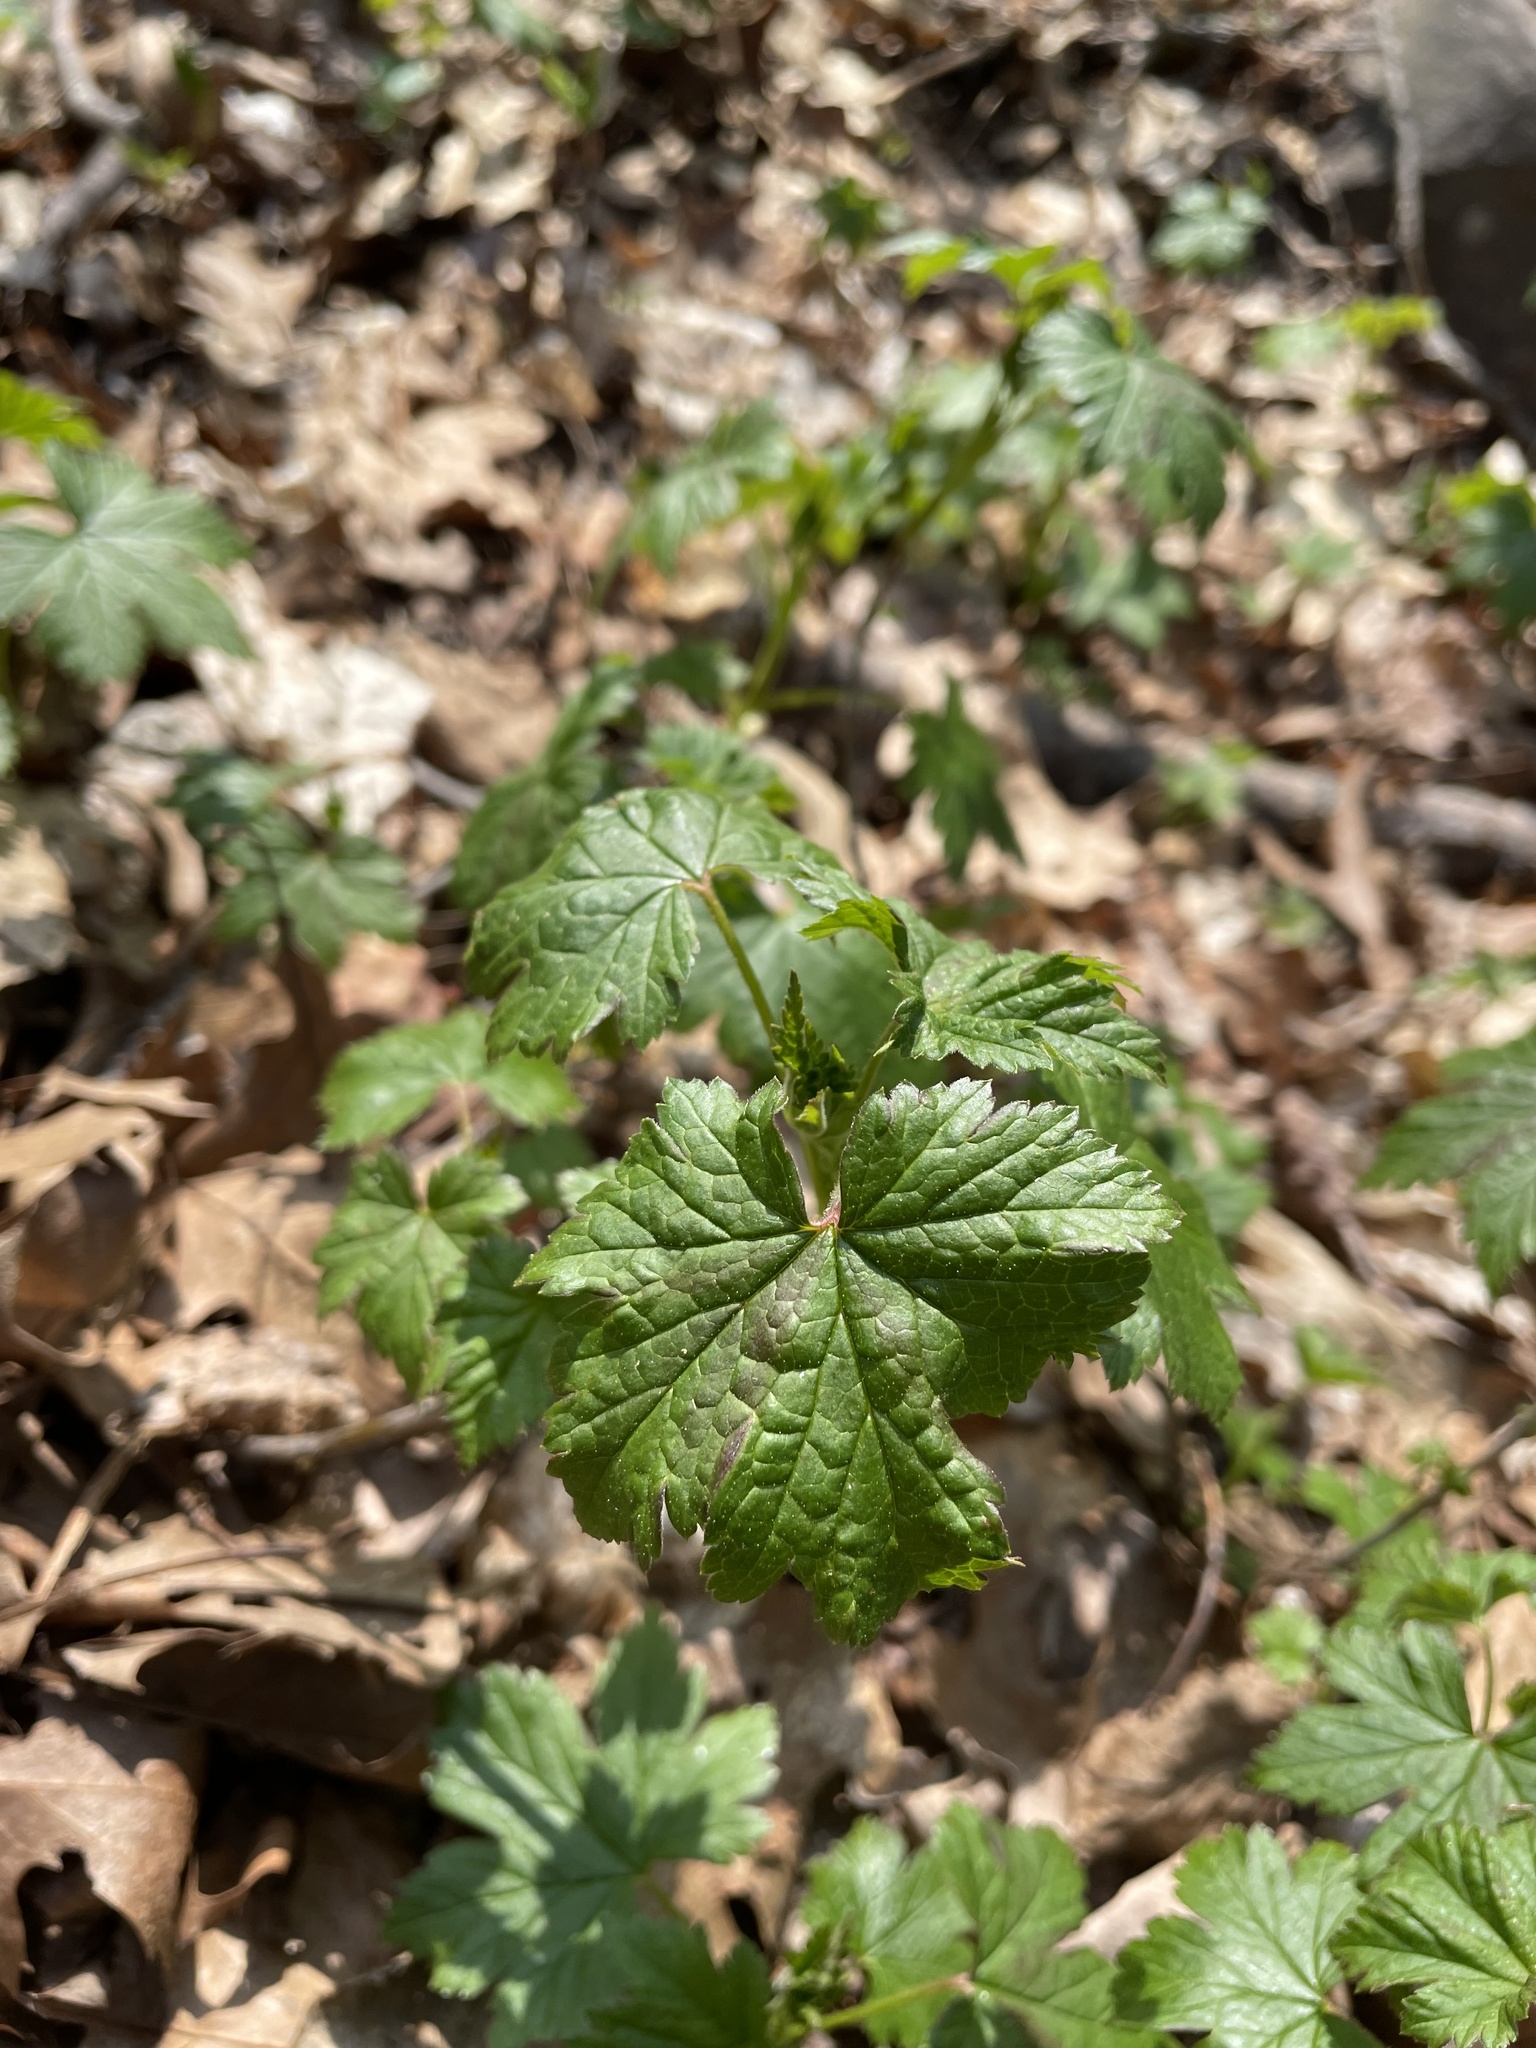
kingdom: Plantae
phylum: Tracheophyta
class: Magnoliopsida
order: Saxifragales
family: Grossulariaceae
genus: Ribes
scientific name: Ribes glandulosum
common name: Skunk currant
